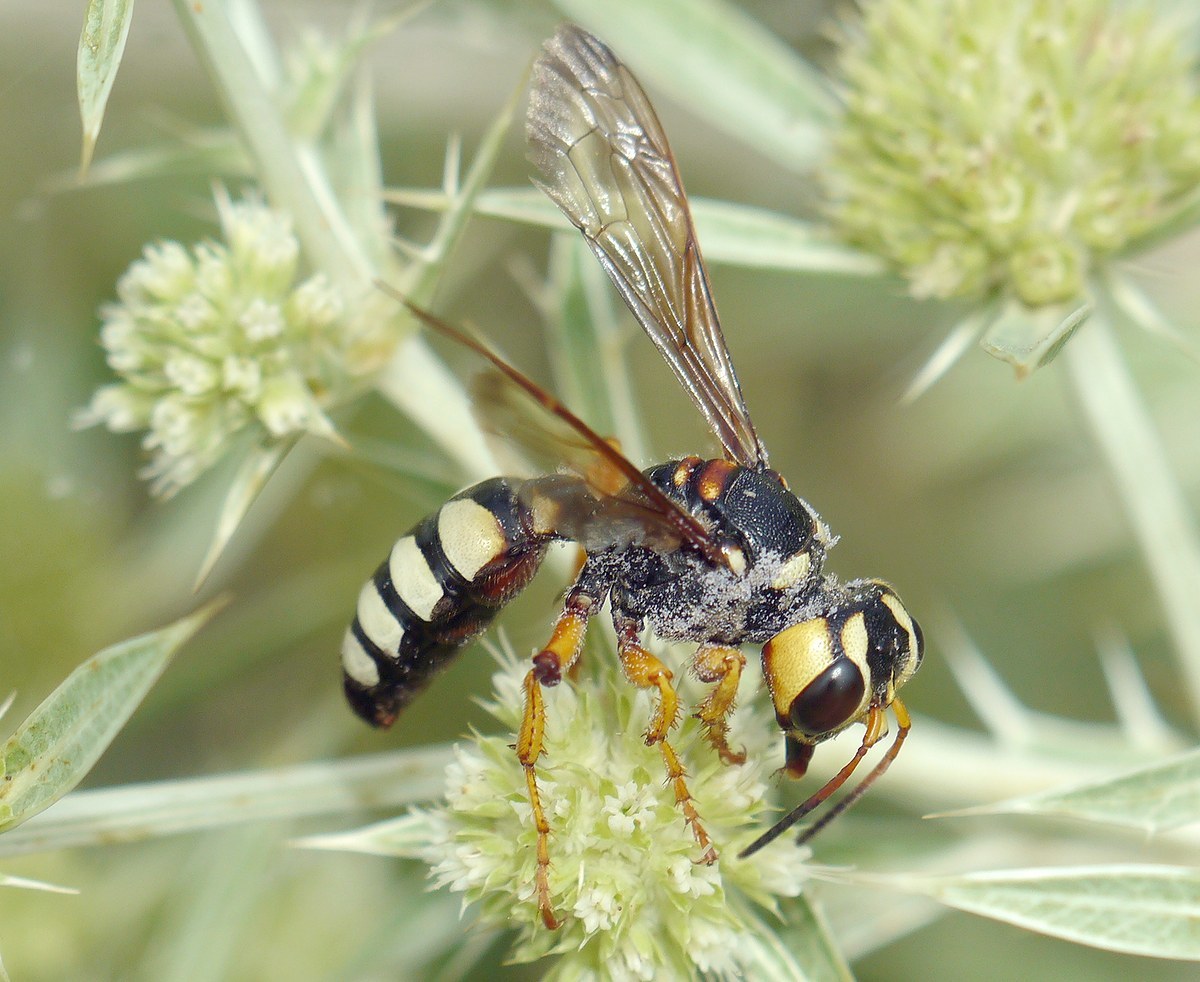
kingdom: Animalia
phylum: Arthropoda
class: Insecta
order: Hymenoptera
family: Crabronidae
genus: Cerceris
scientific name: Cerceris tuberculata
